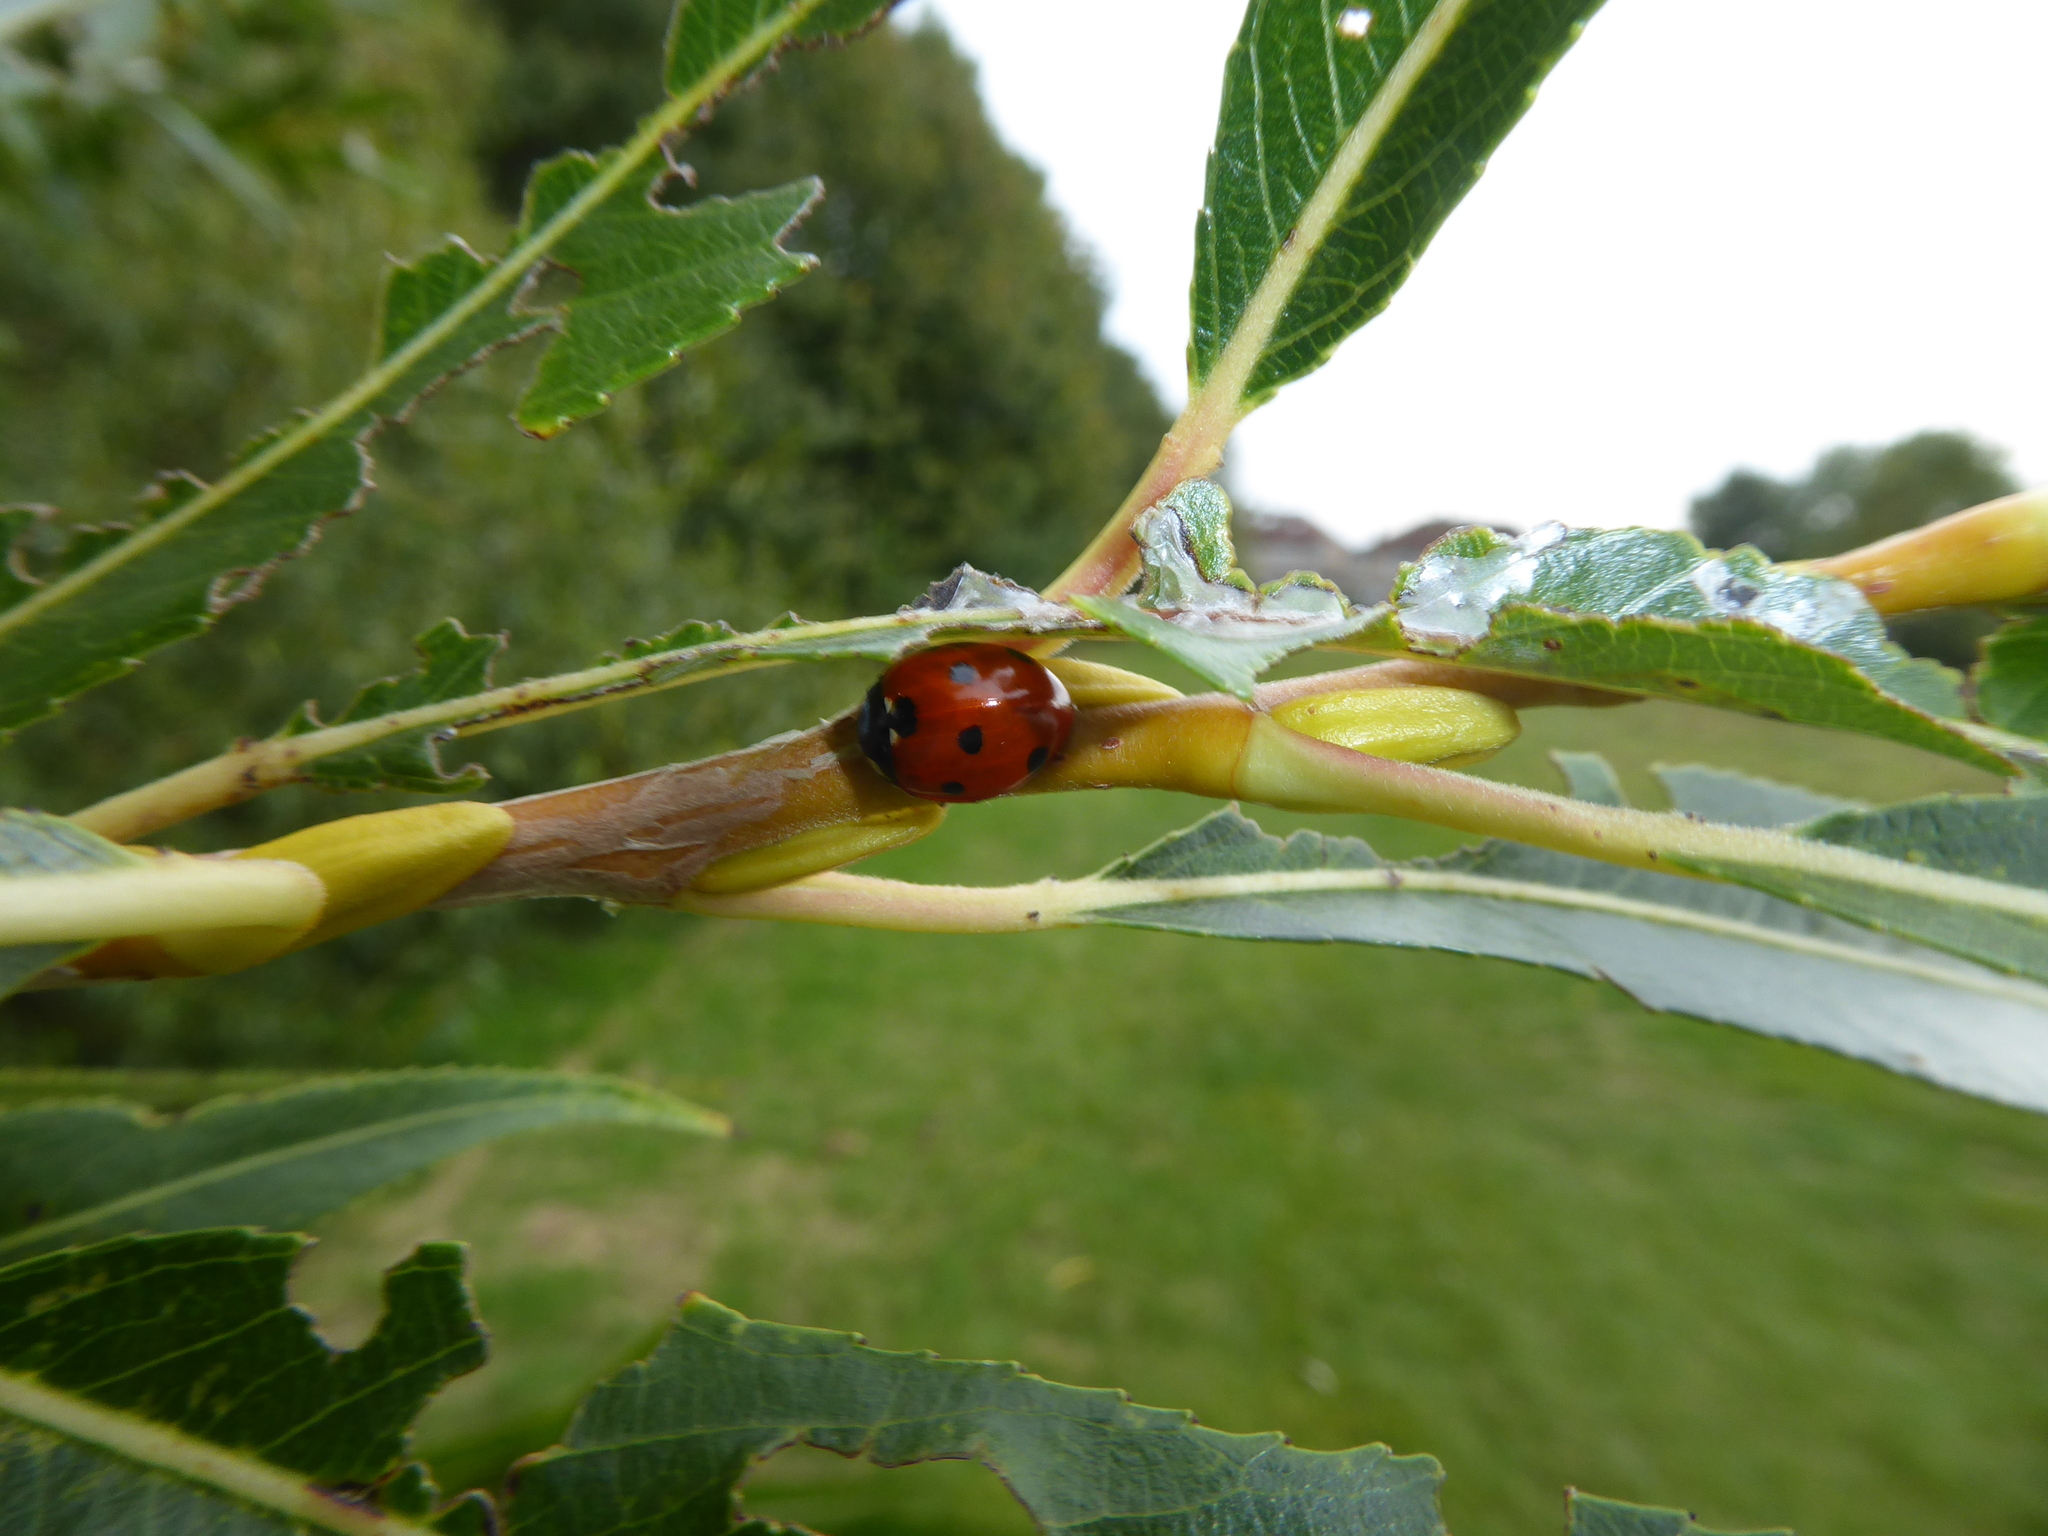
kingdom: Animalia
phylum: Arthropoda
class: Insecta
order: Coleoptera
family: Coccinellidae
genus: Coccinella
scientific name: Coccinella septempunctata
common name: Sevenspotted lady beetle
